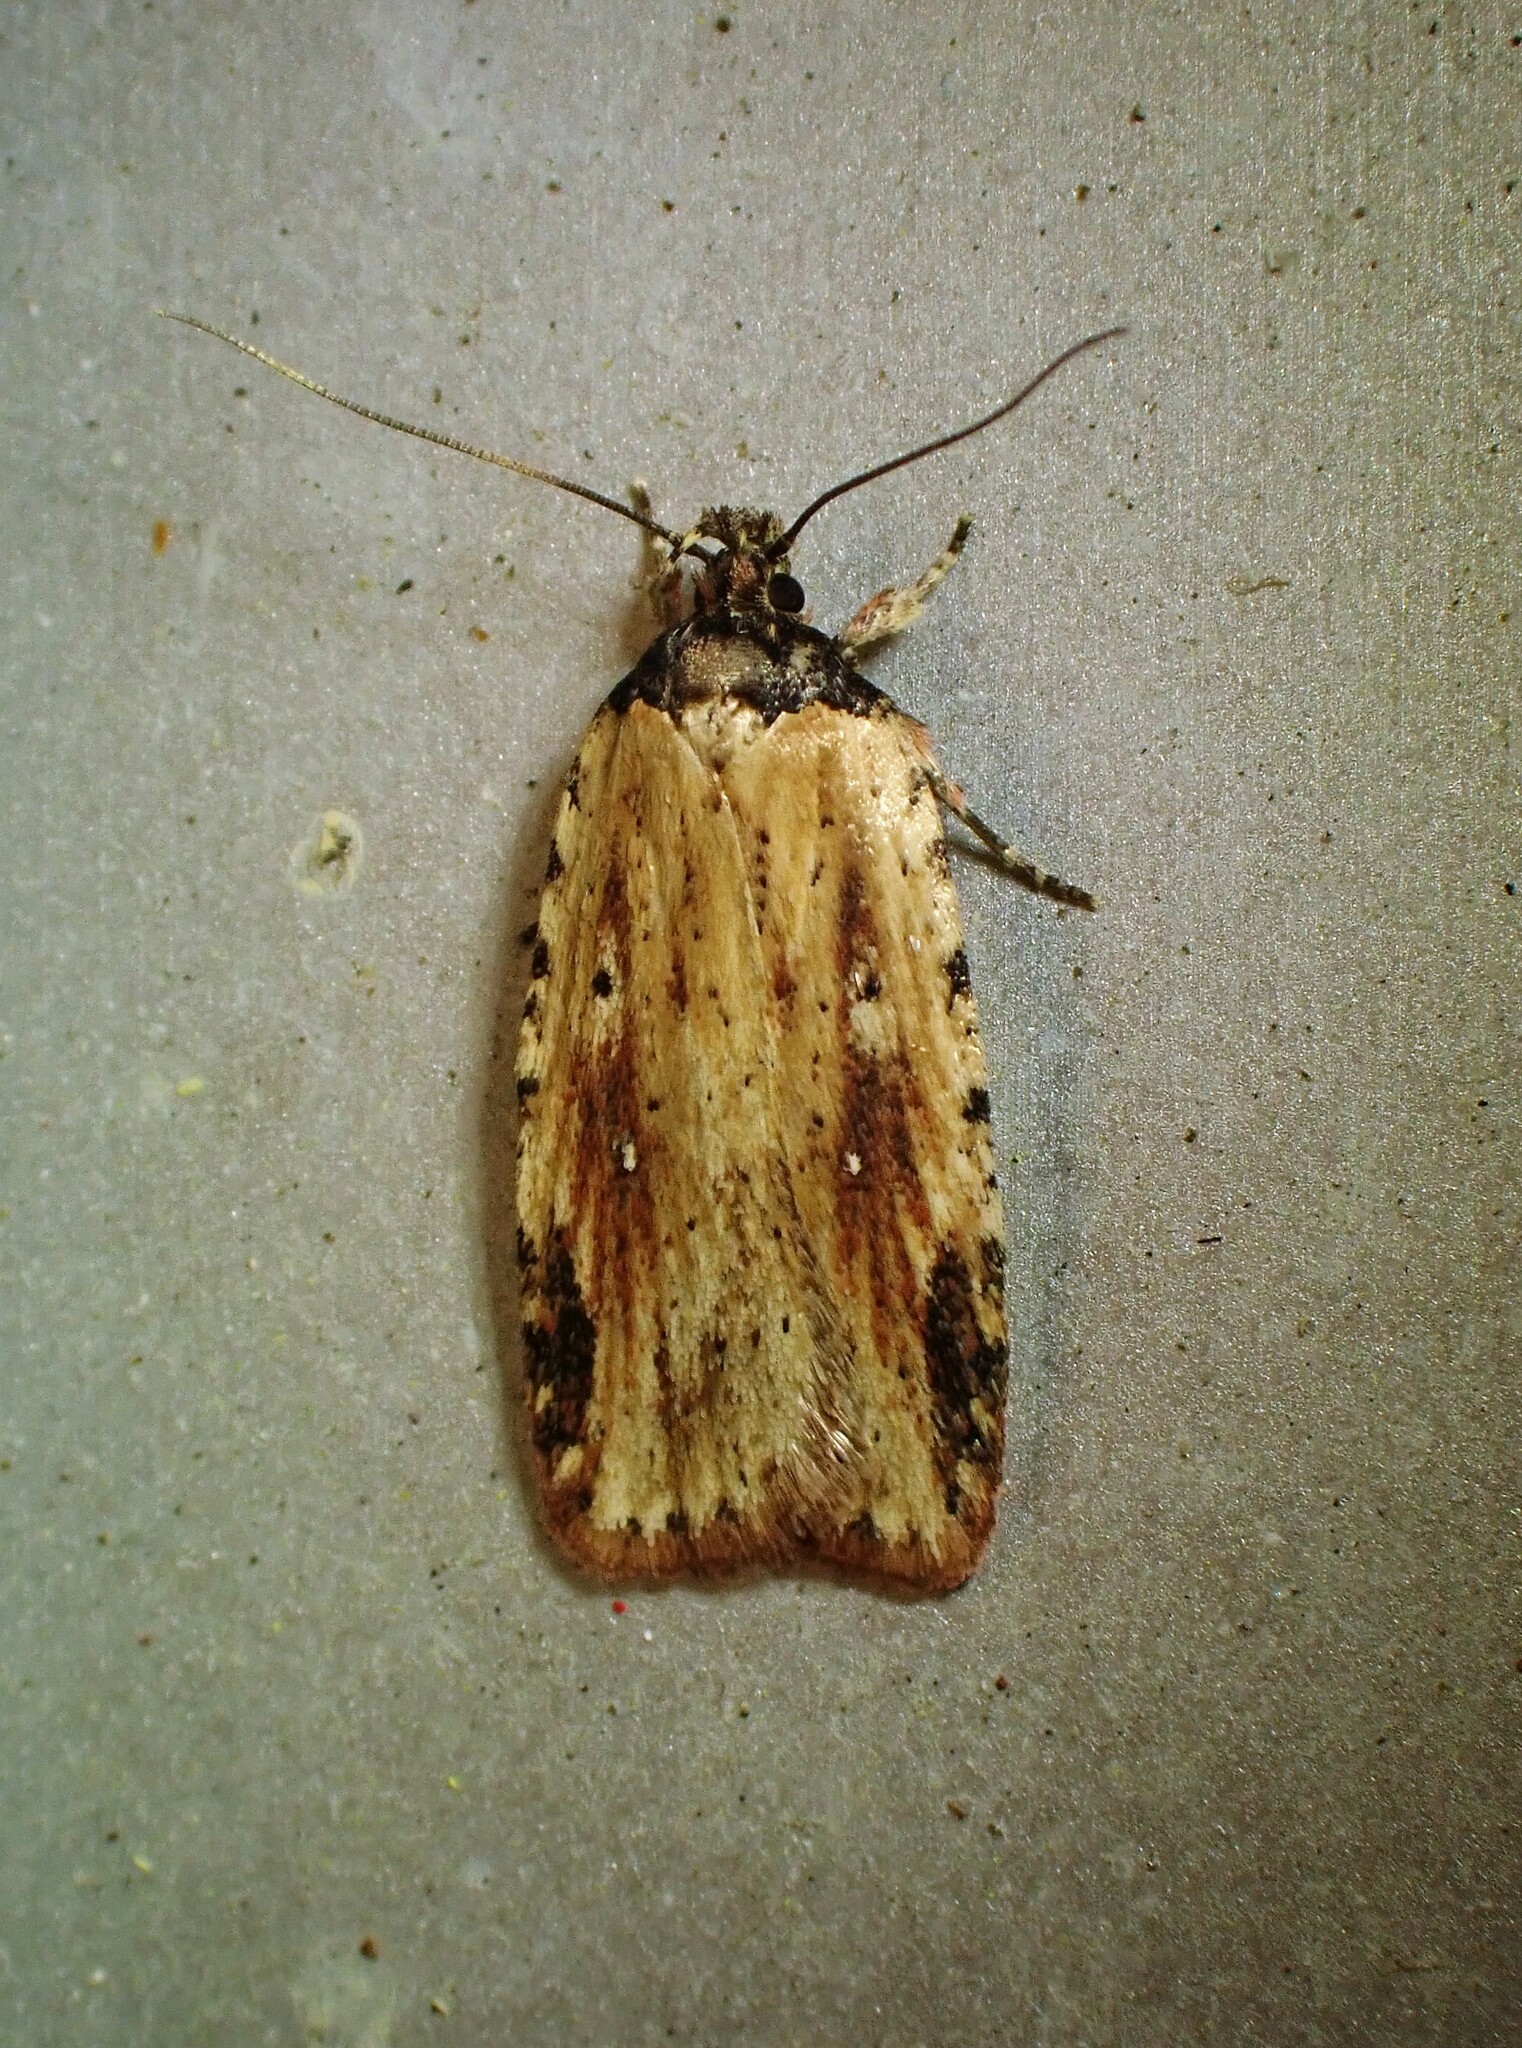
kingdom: Animalia
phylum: Arthropoda
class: Insecta
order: Lepidoptera
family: Depressariidae
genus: Agonopterix
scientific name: Agonopterix atrodorsella
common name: Beggartick leaffolder
